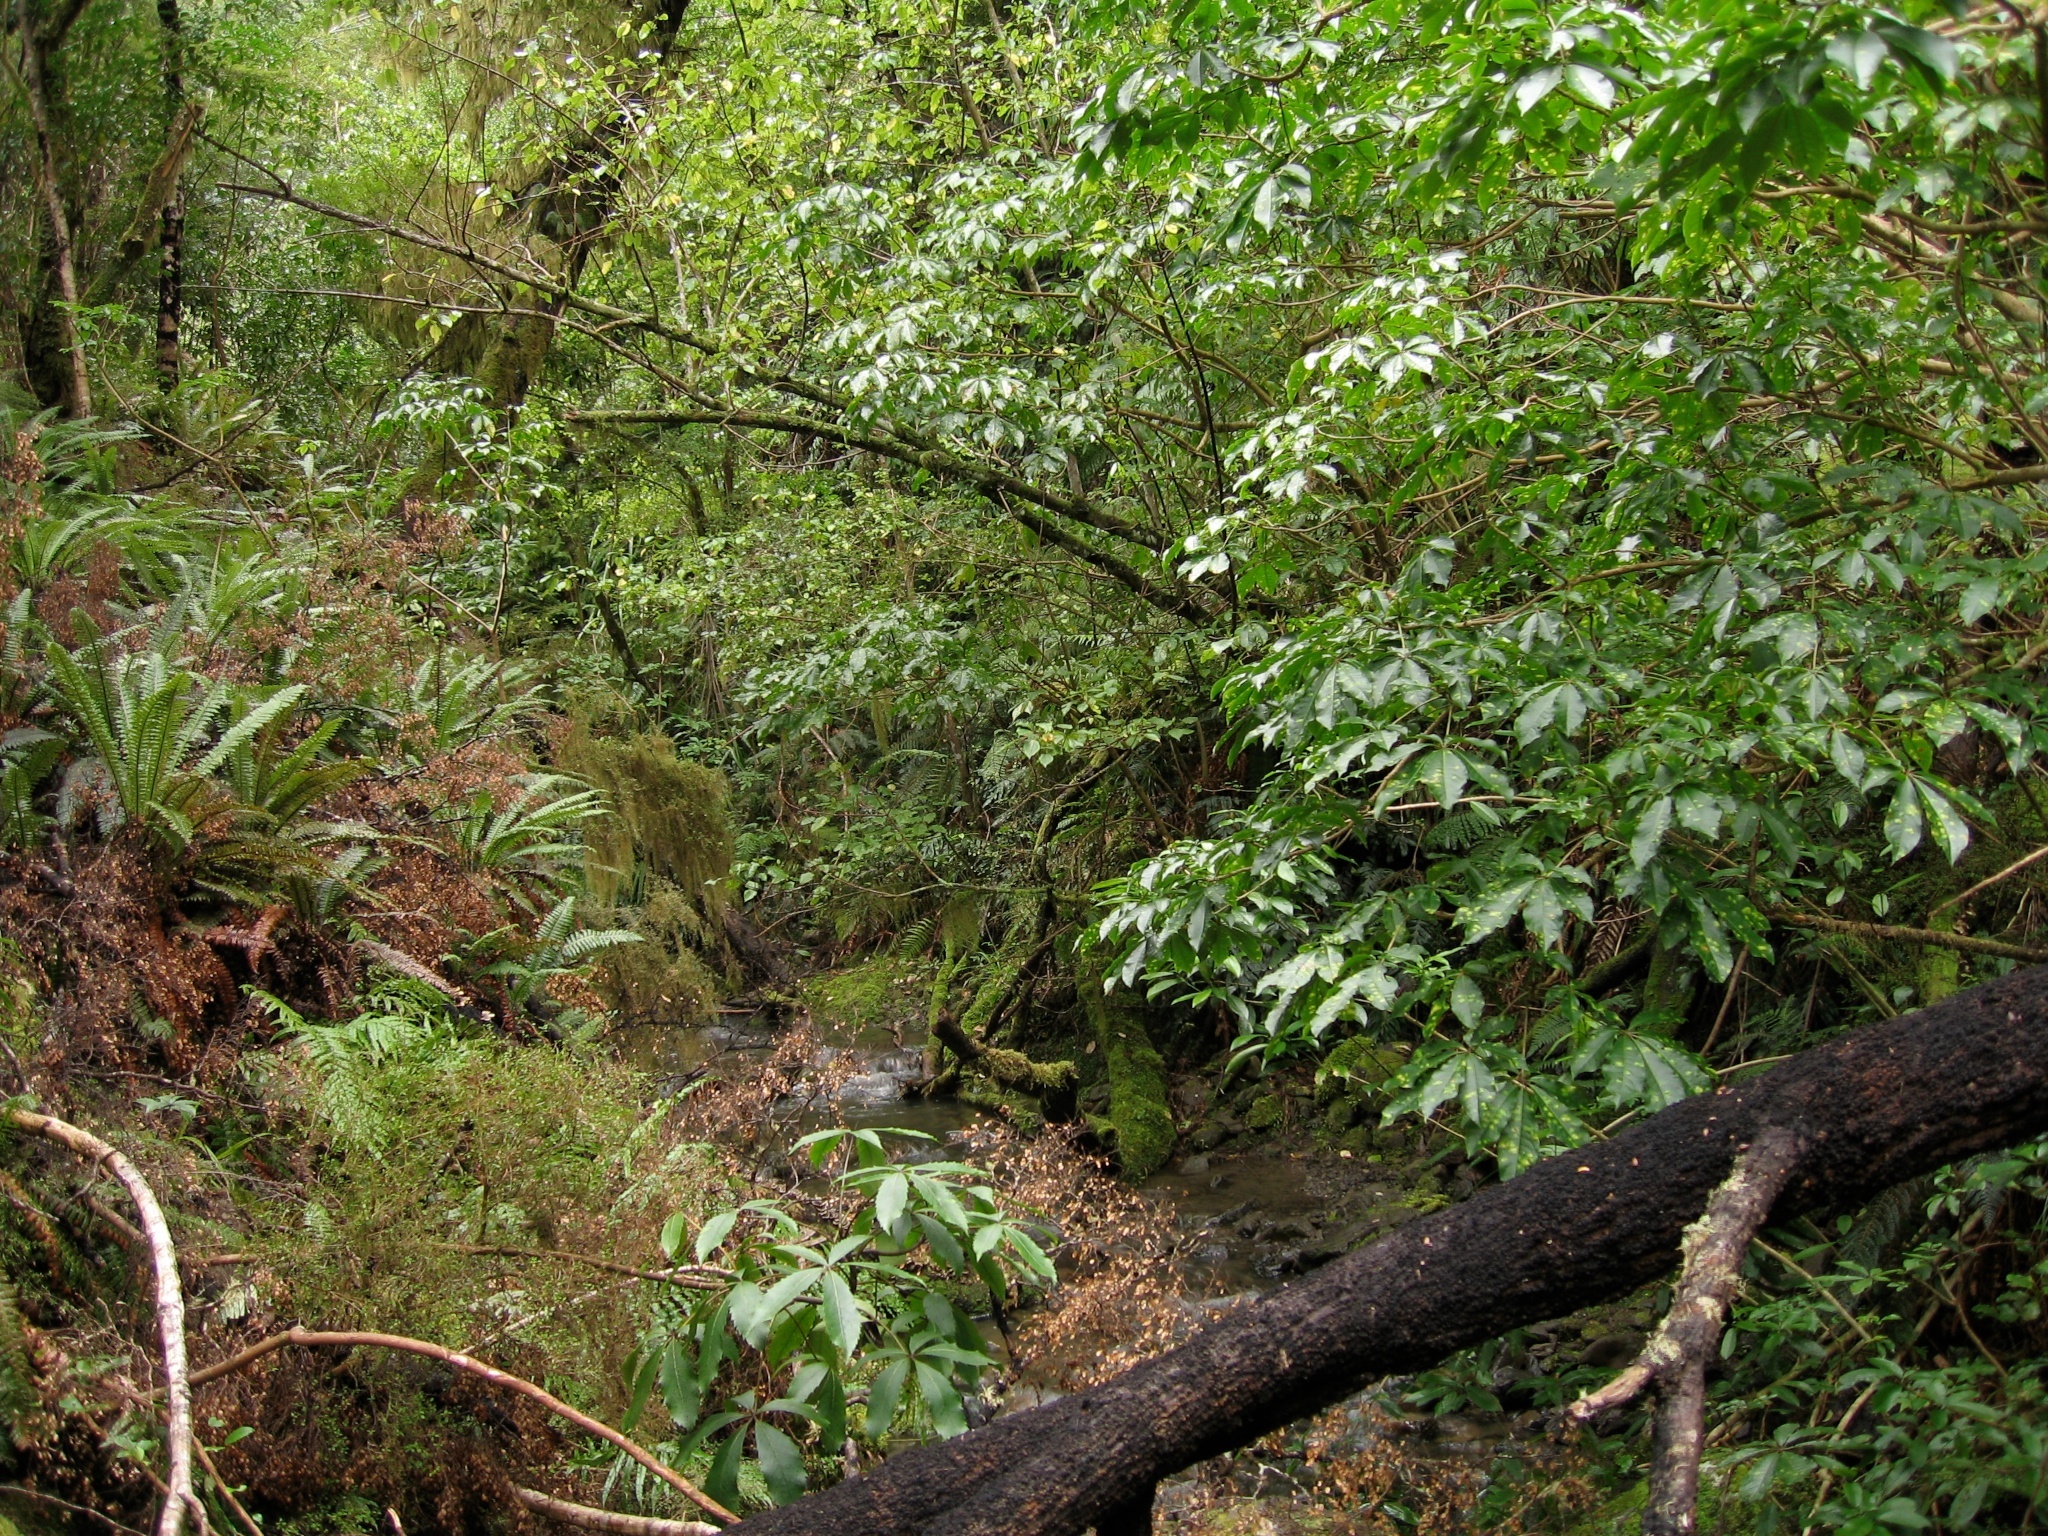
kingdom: Plantae
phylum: Tracheophyta
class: Magnoliopsida
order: Apiales
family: Araliaceae
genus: Schefflera
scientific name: Schefflera digitata
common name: Pate
